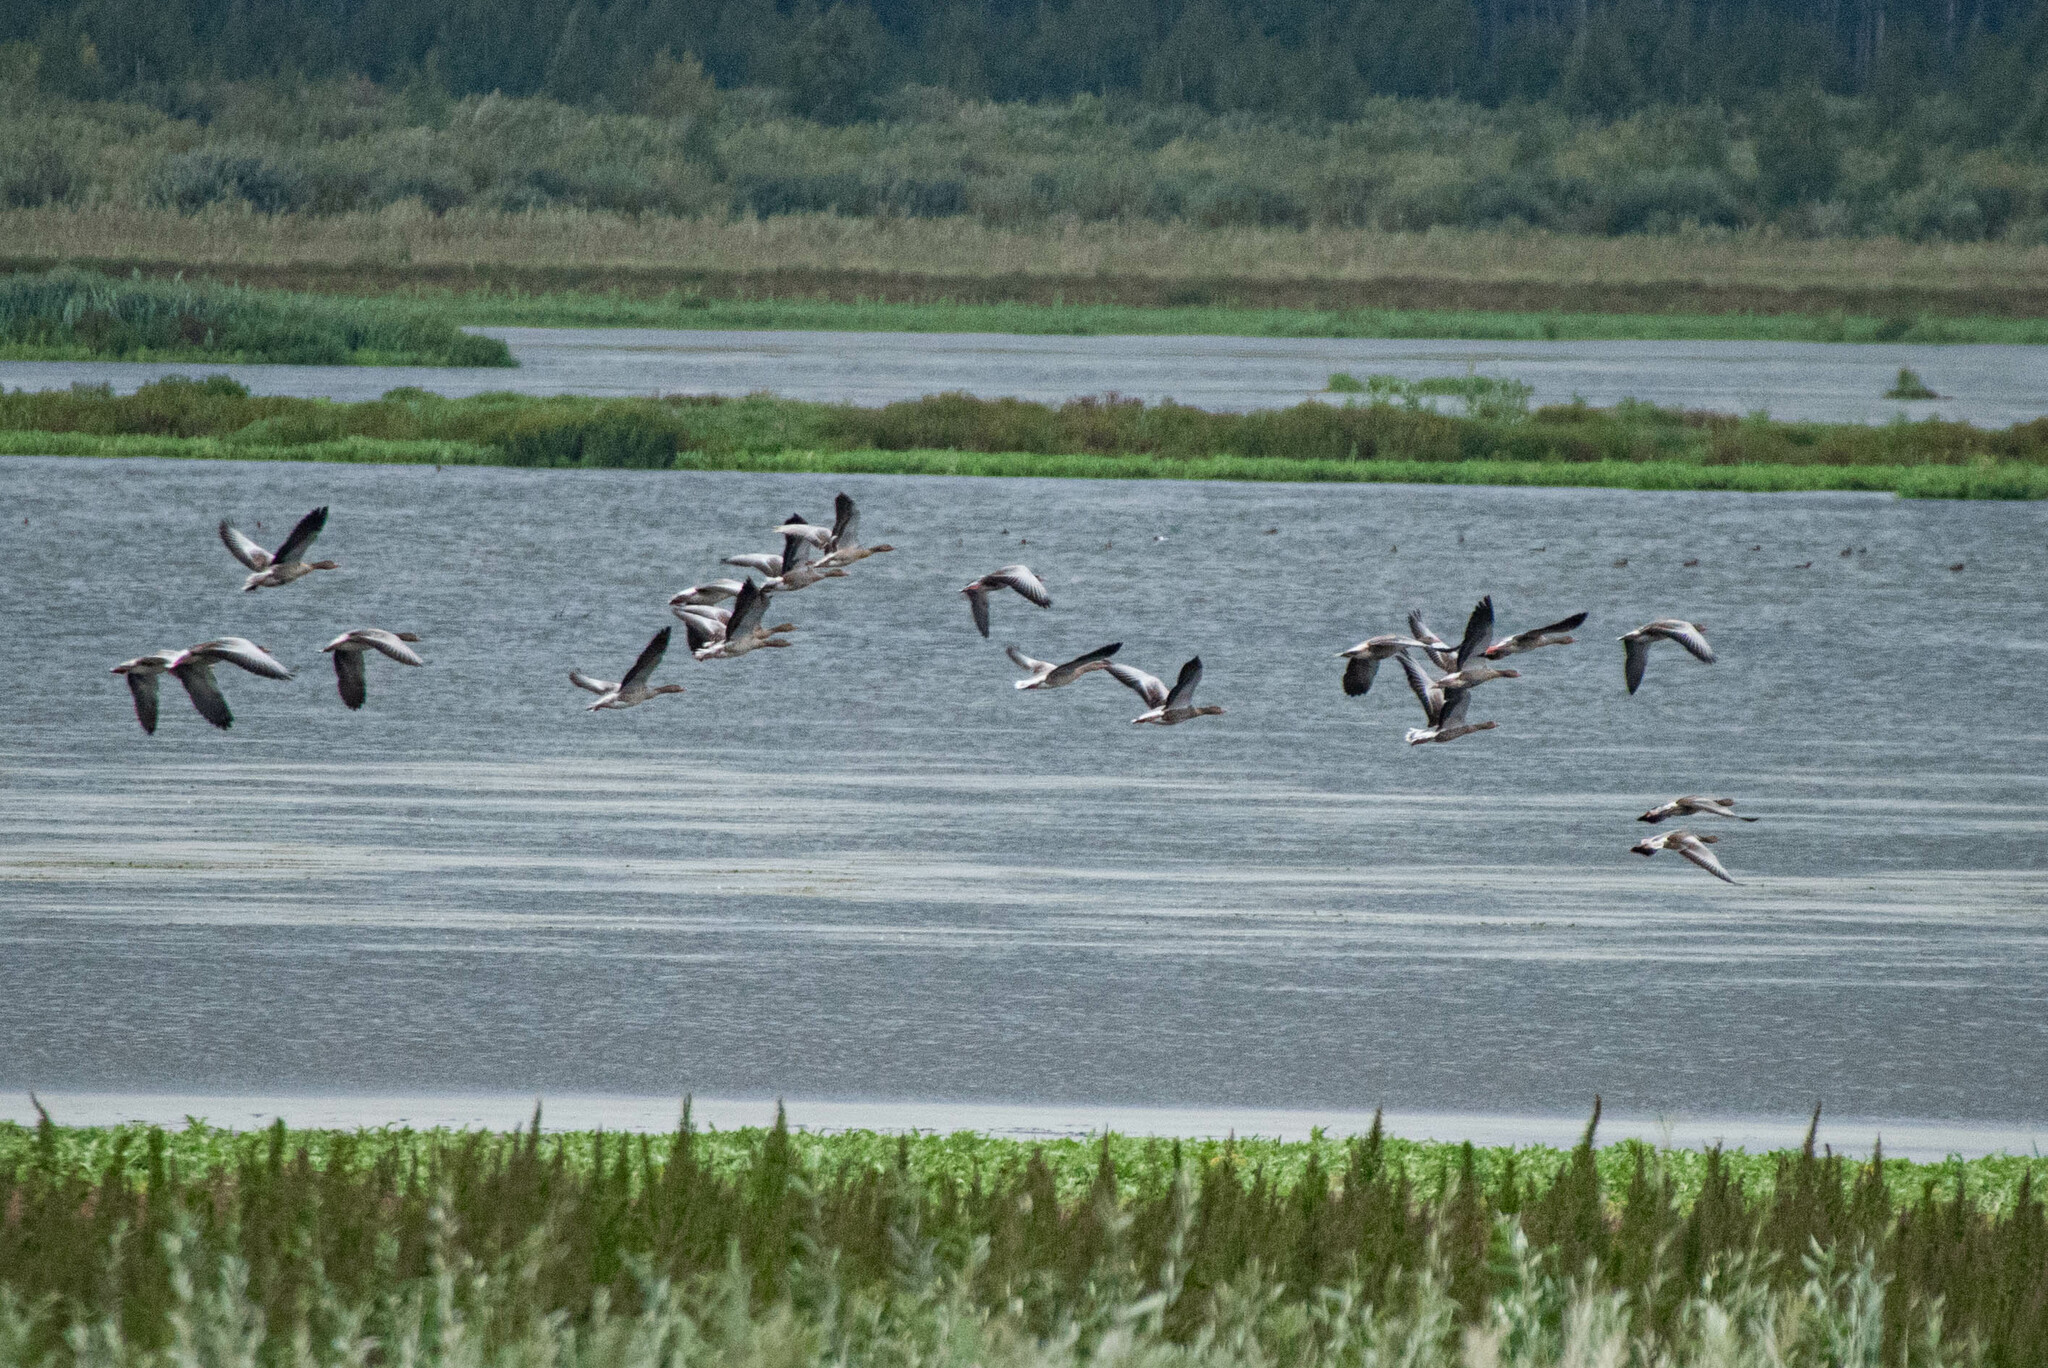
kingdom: Animalia
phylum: Chordata
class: Aves
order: Anseriformes
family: Anatidae
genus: Anser
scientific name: Anser anser
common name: Greylag goose
